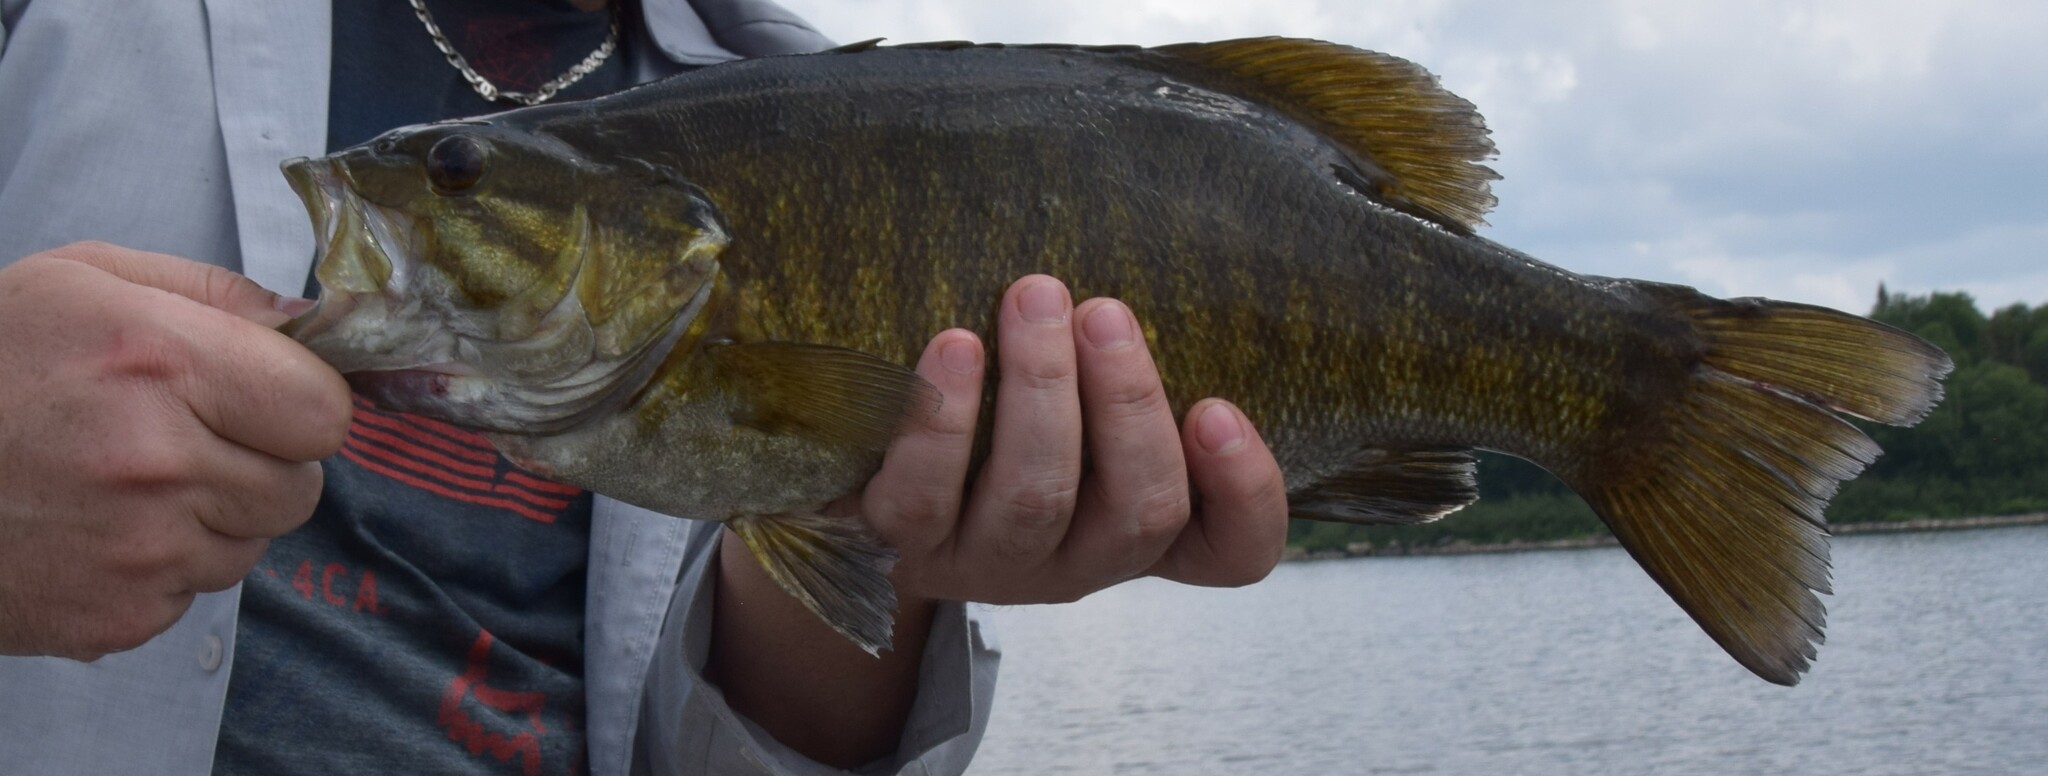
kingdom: Animalia
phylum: Chordata
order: Perciformes
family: Centrarchidae
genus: Micropterus
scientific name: Micropterus dolomieu
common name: Smallmouth bass
